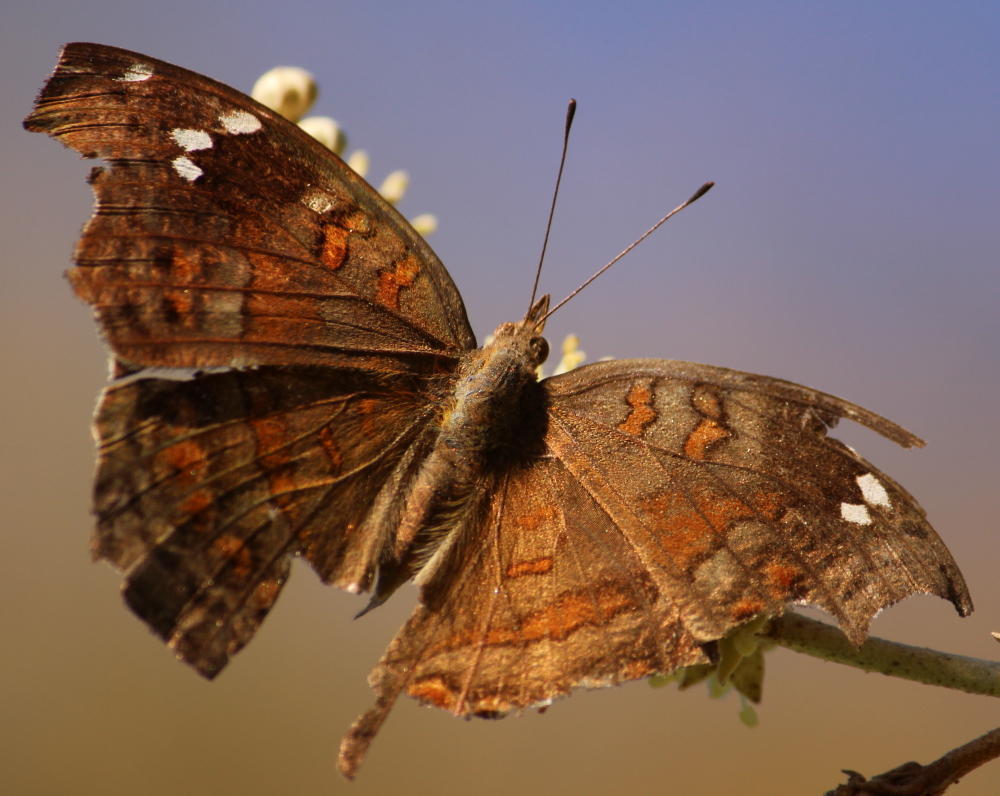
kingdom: Animalia
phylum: Arthropoda
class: Insecta
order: Lepidoptera
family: Nymphalidae
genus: Junonia
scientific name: Junonia natalica
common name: Brown pansy
